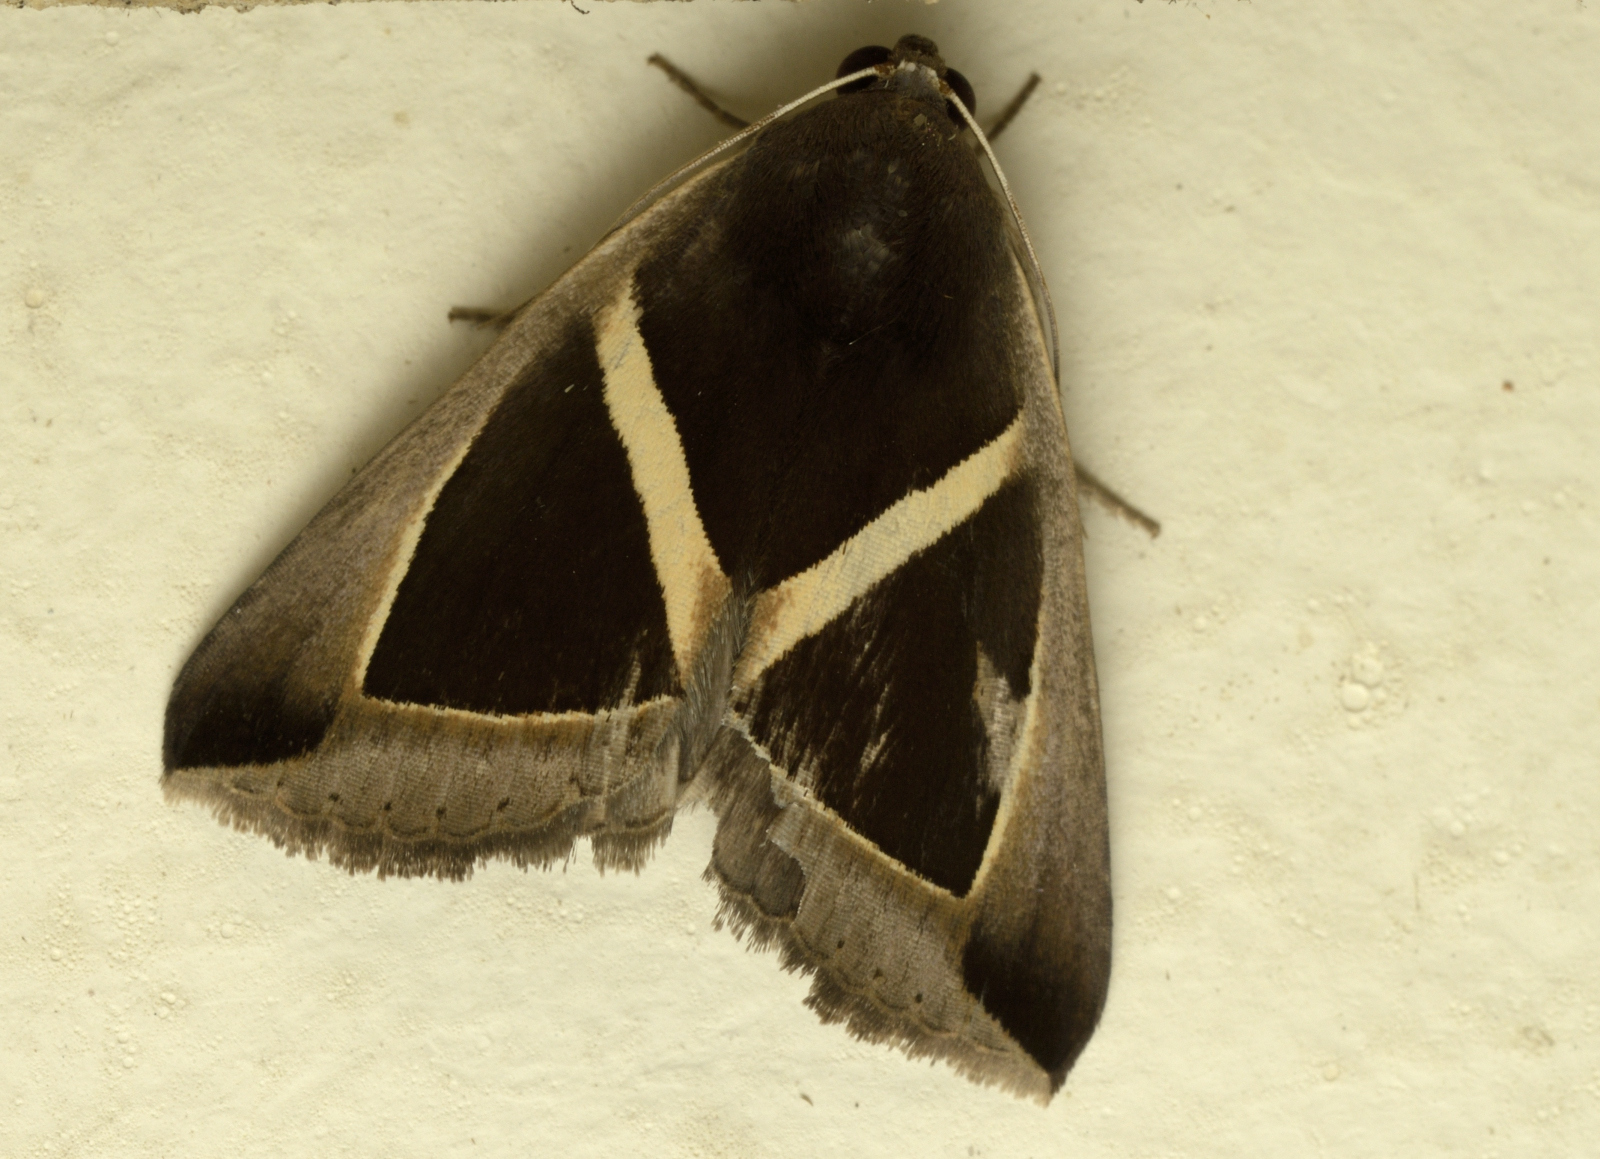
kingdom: Animalia
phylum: Arthropoda
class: Insecta
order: Lepidoptera
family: Erebidae
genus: Chalciope
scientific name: Chalciope mygdon
